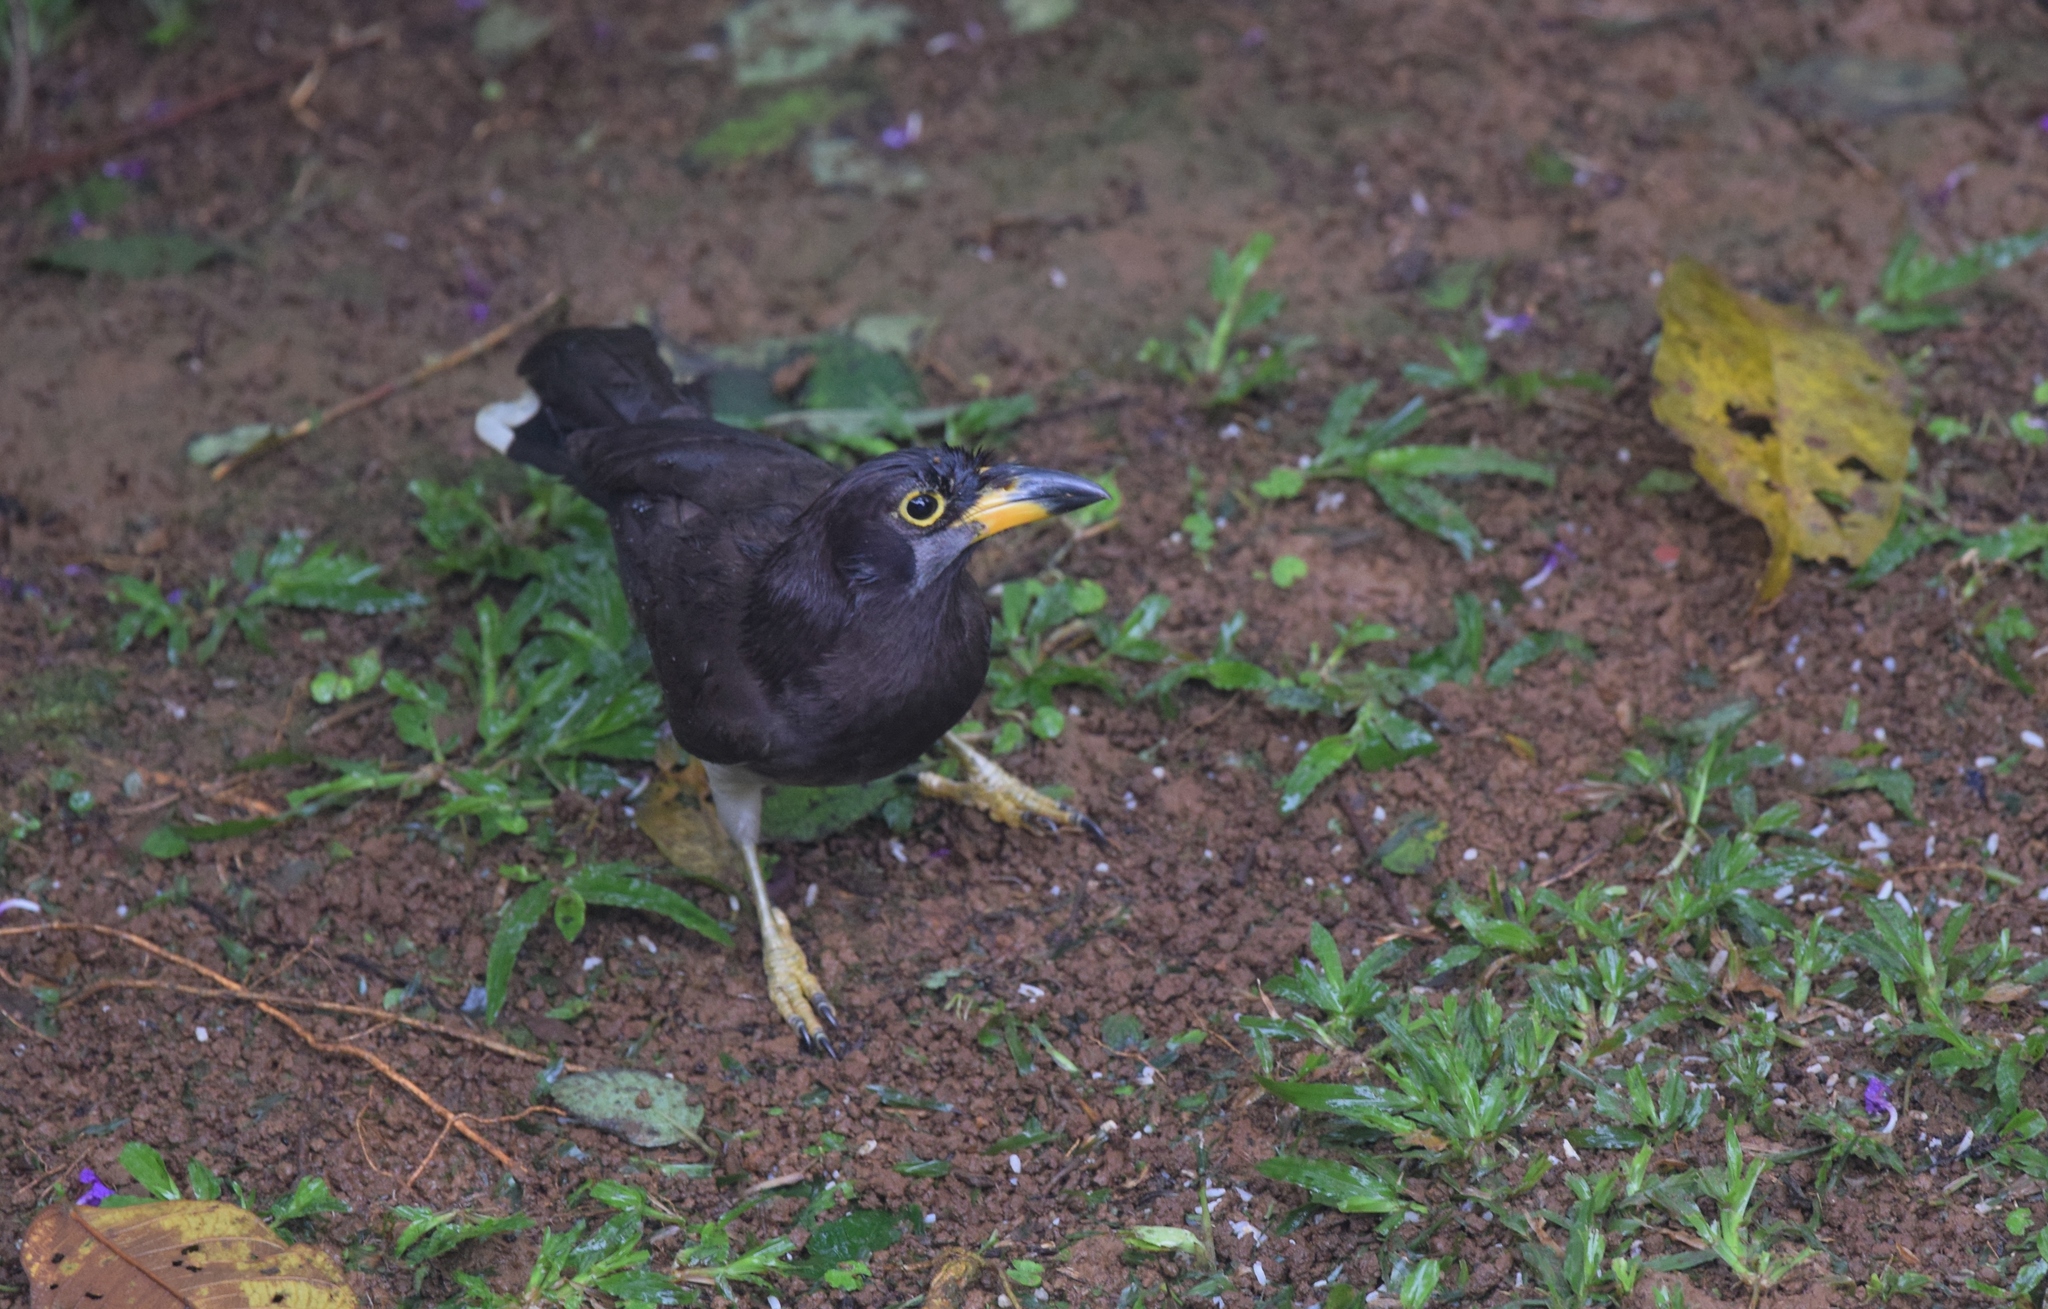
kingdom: Animalia
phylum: Chordata
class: Aves
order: Passeriformes
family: Corvidae
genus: Psilorhinus
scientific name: Psilorhinus morio
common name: Brown jay
